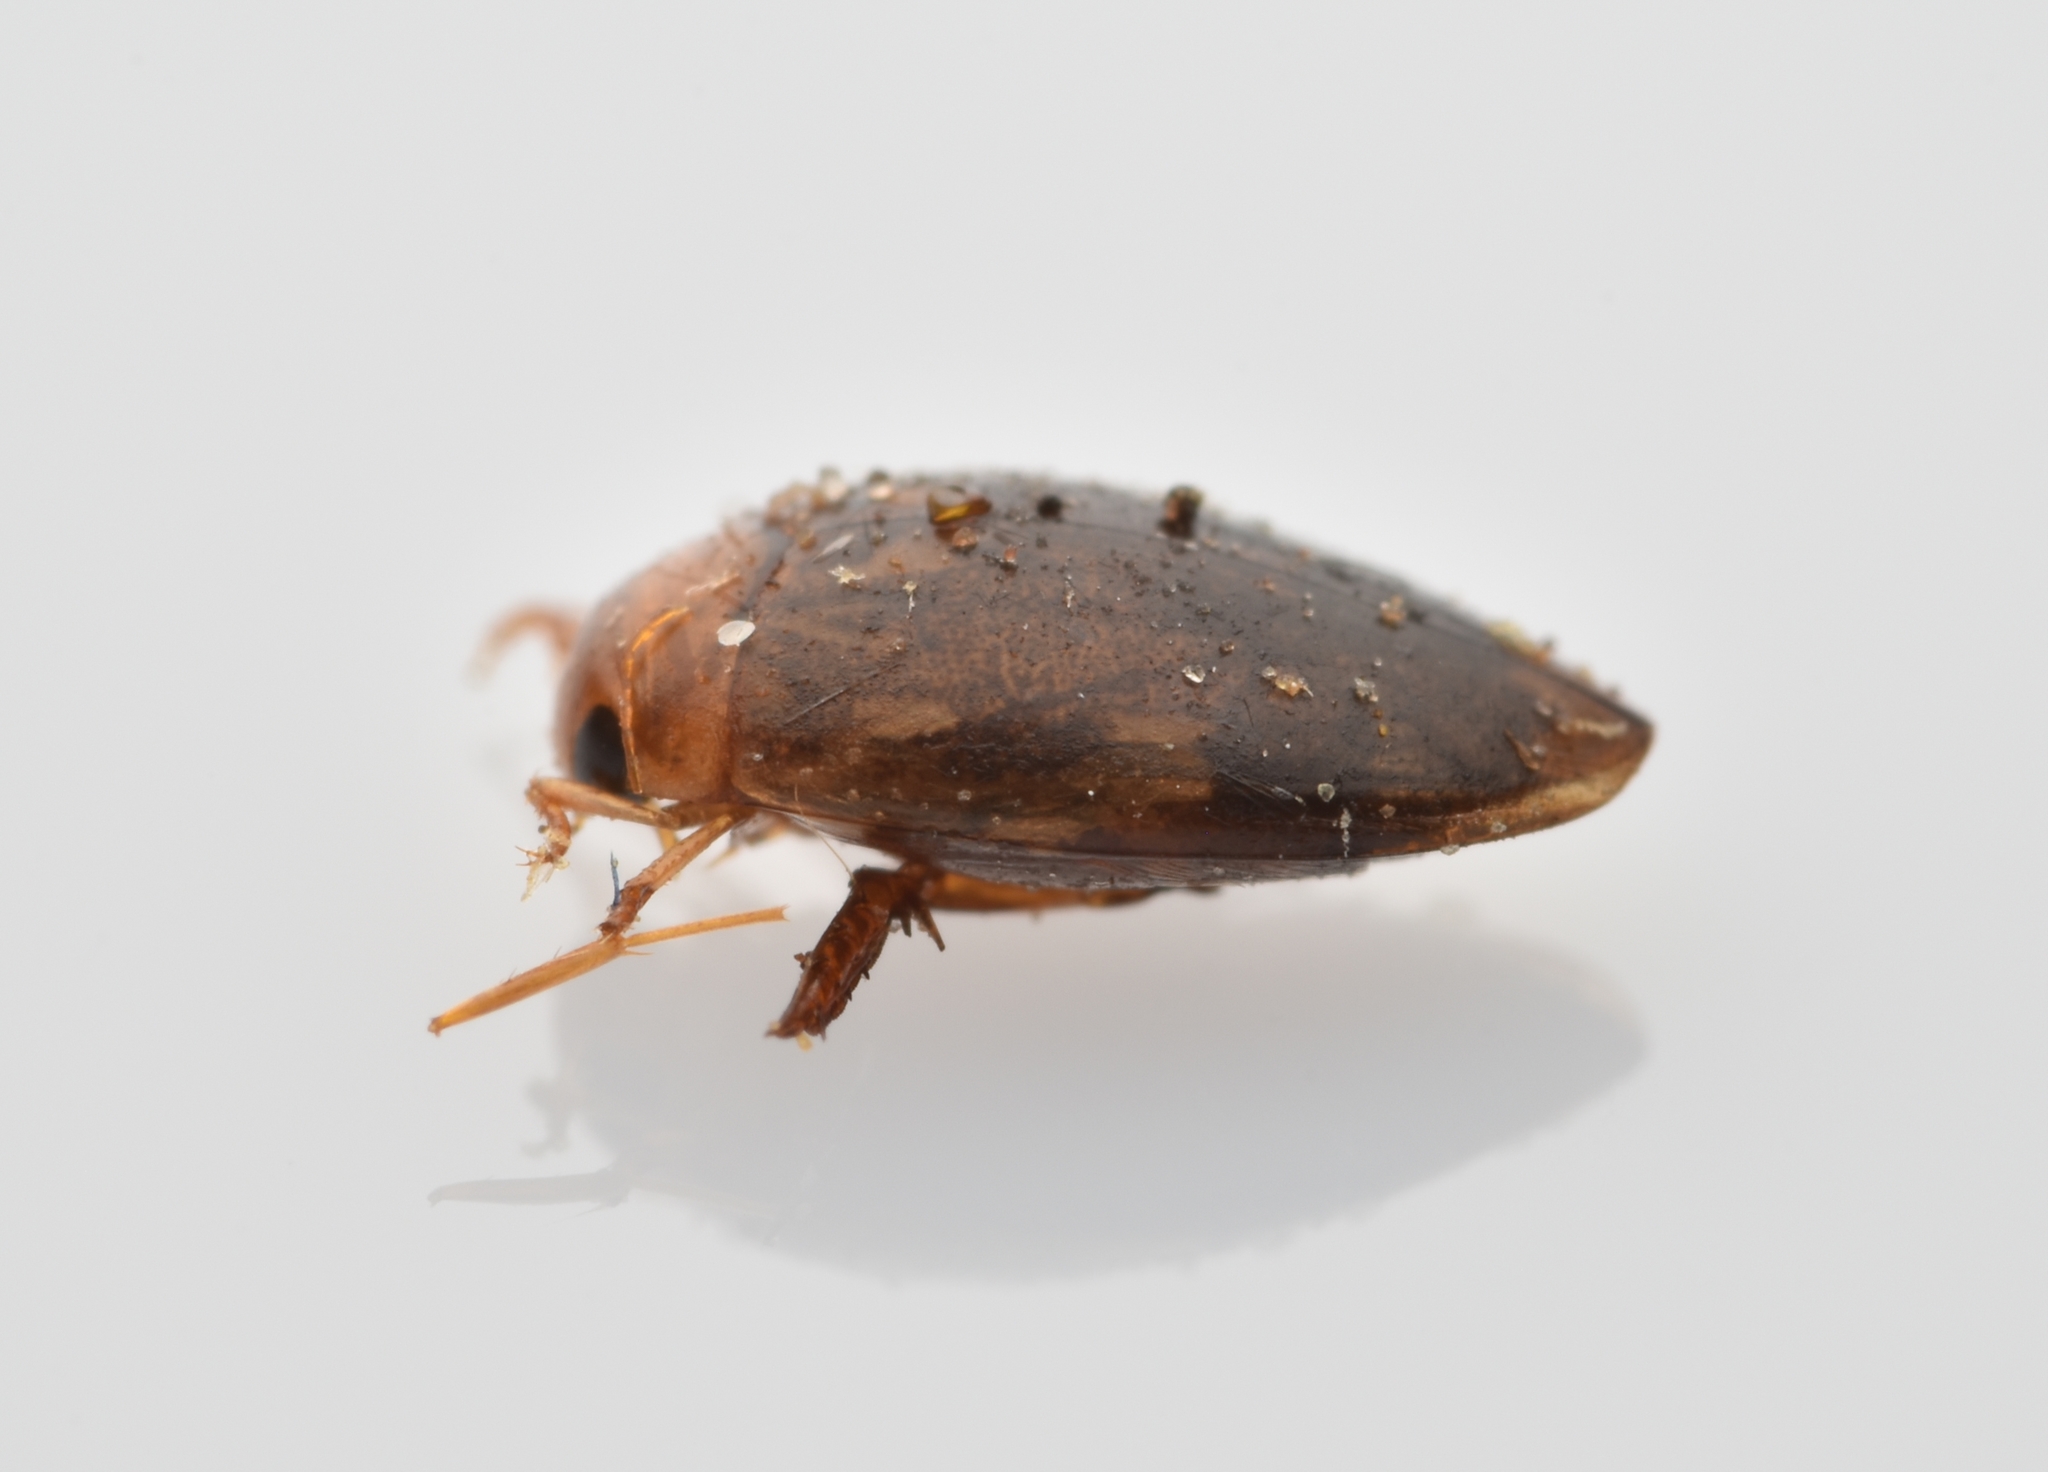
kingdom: Animalia
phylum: Arthropoda
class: Insecta
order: Coleoptera
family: Dytiscidae
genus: Laccophilus
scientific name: Laccophilus proximus
